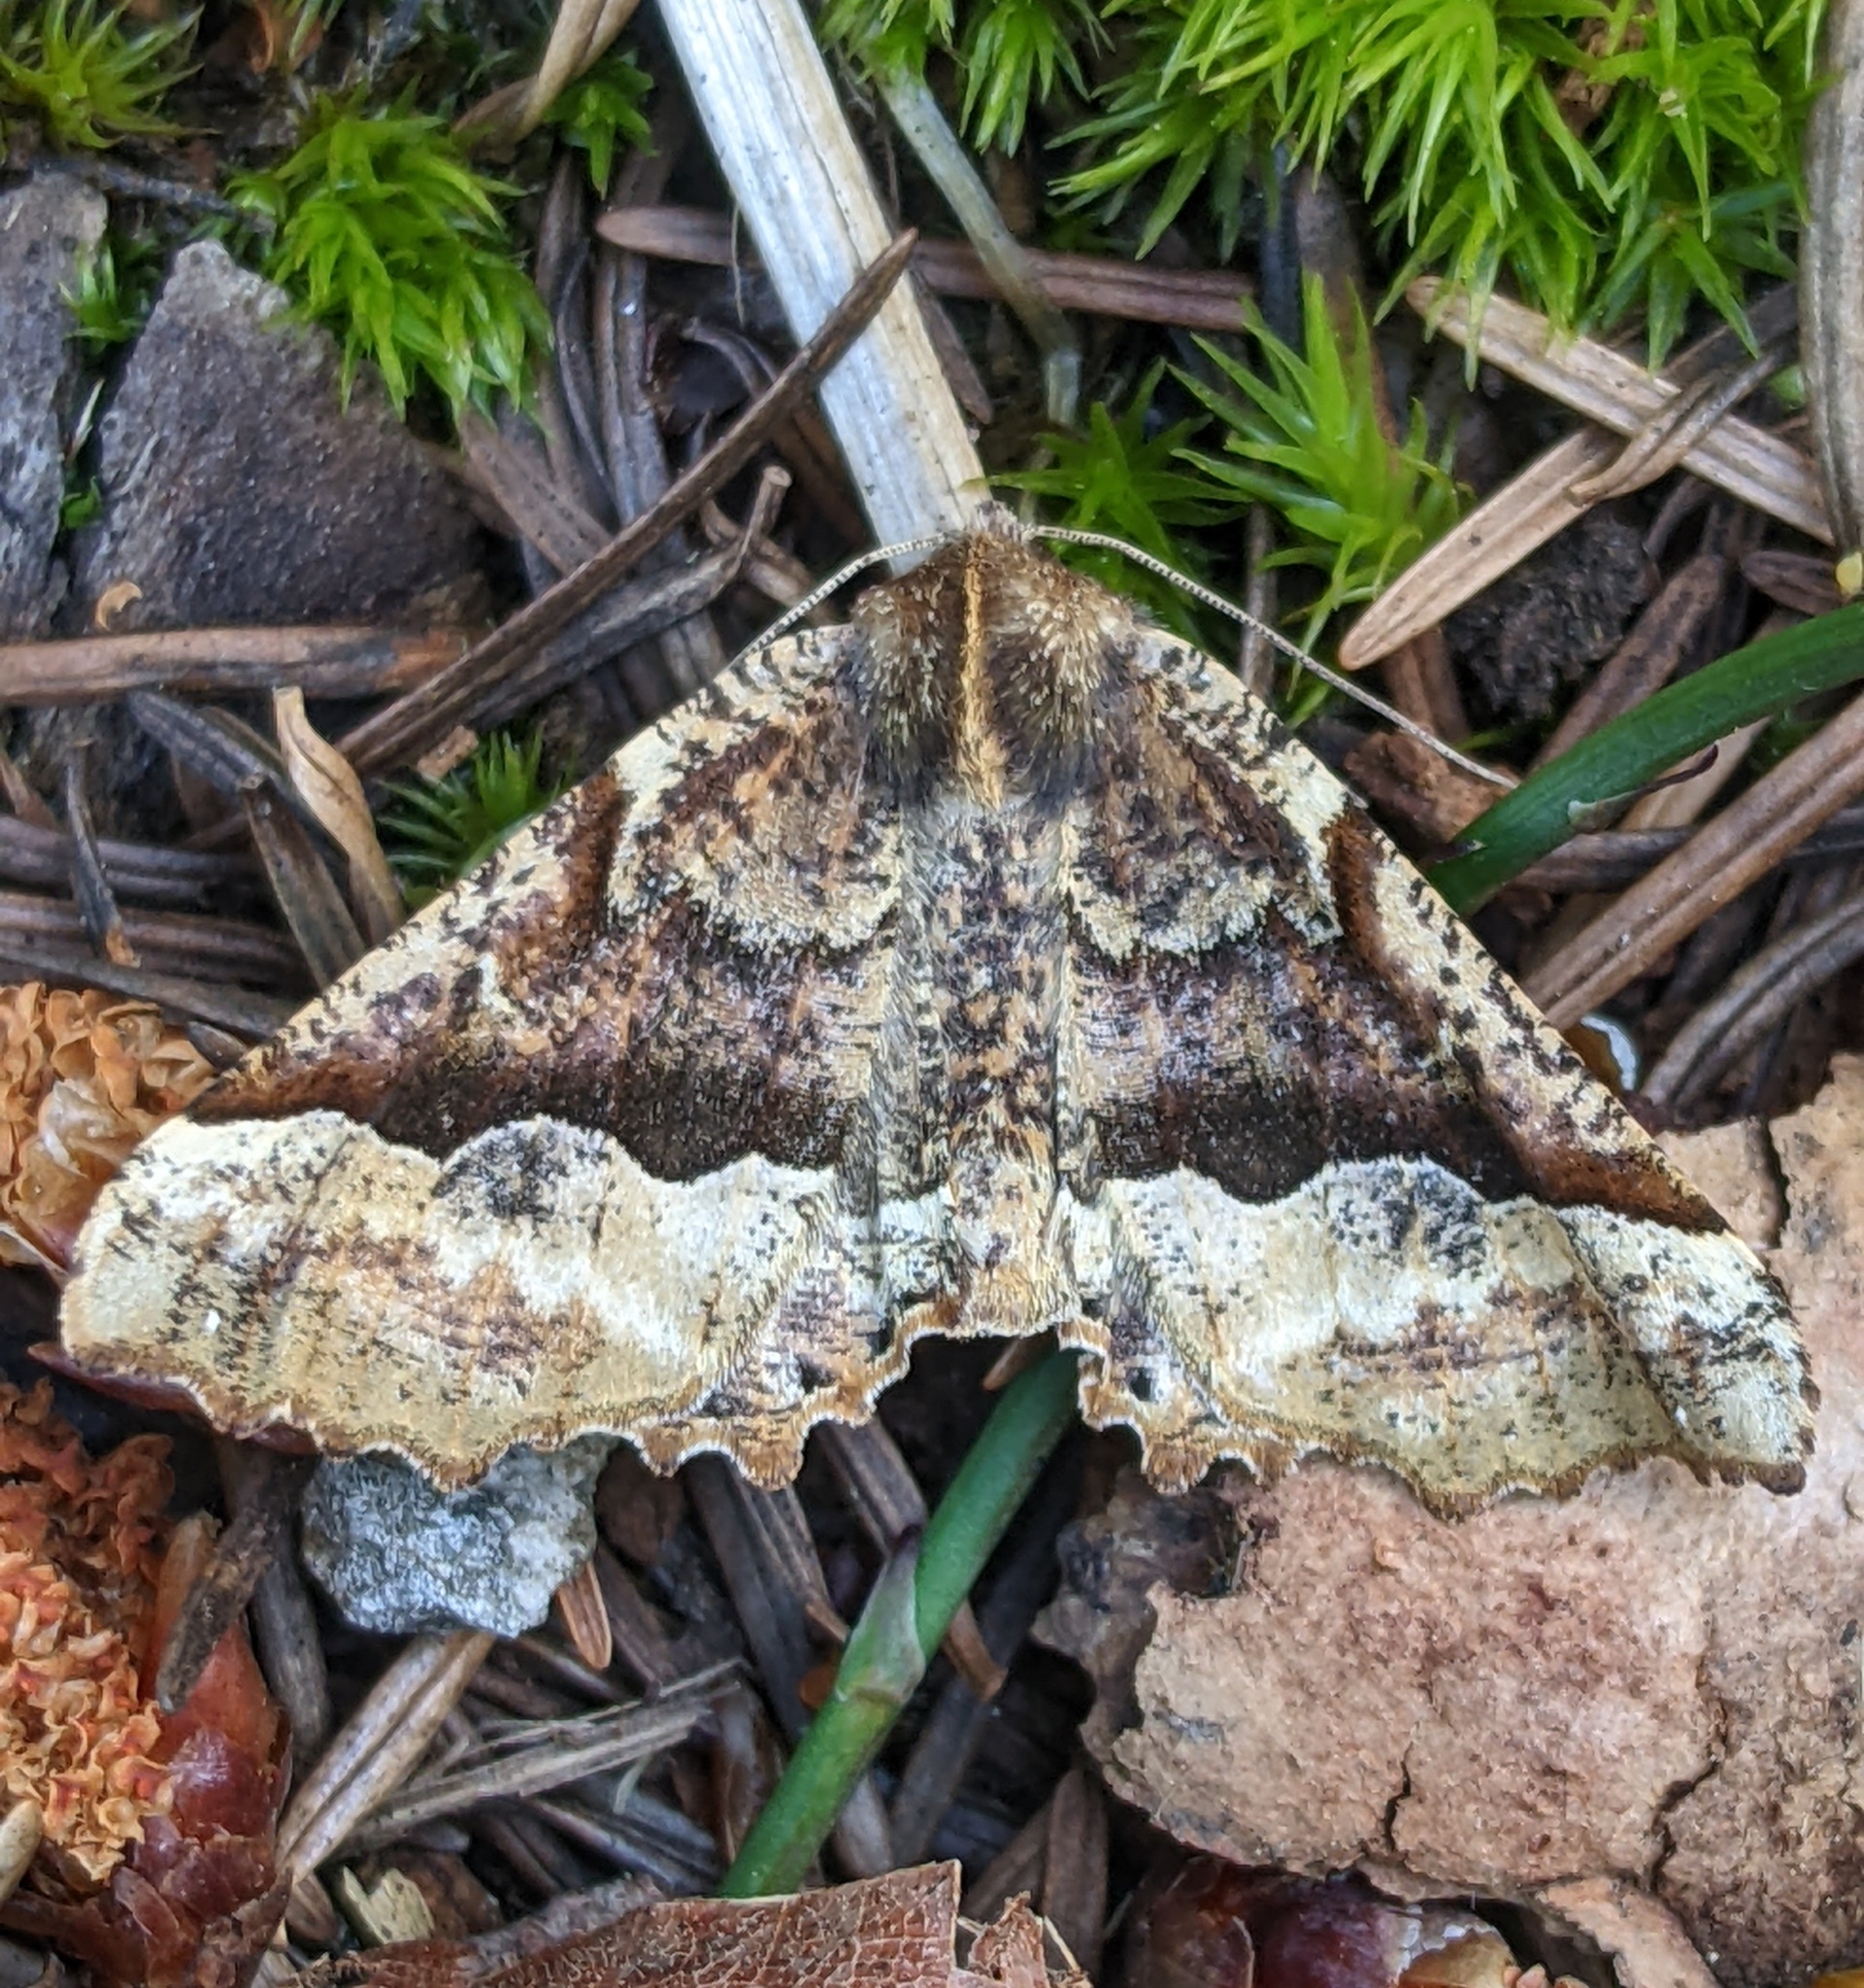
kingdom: Animalia
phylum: Arthropoda
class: Insecta
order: Lepidoptera
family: Geometridae
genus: Pero
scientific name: Pero morrisonaria
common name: Morrison's pero
